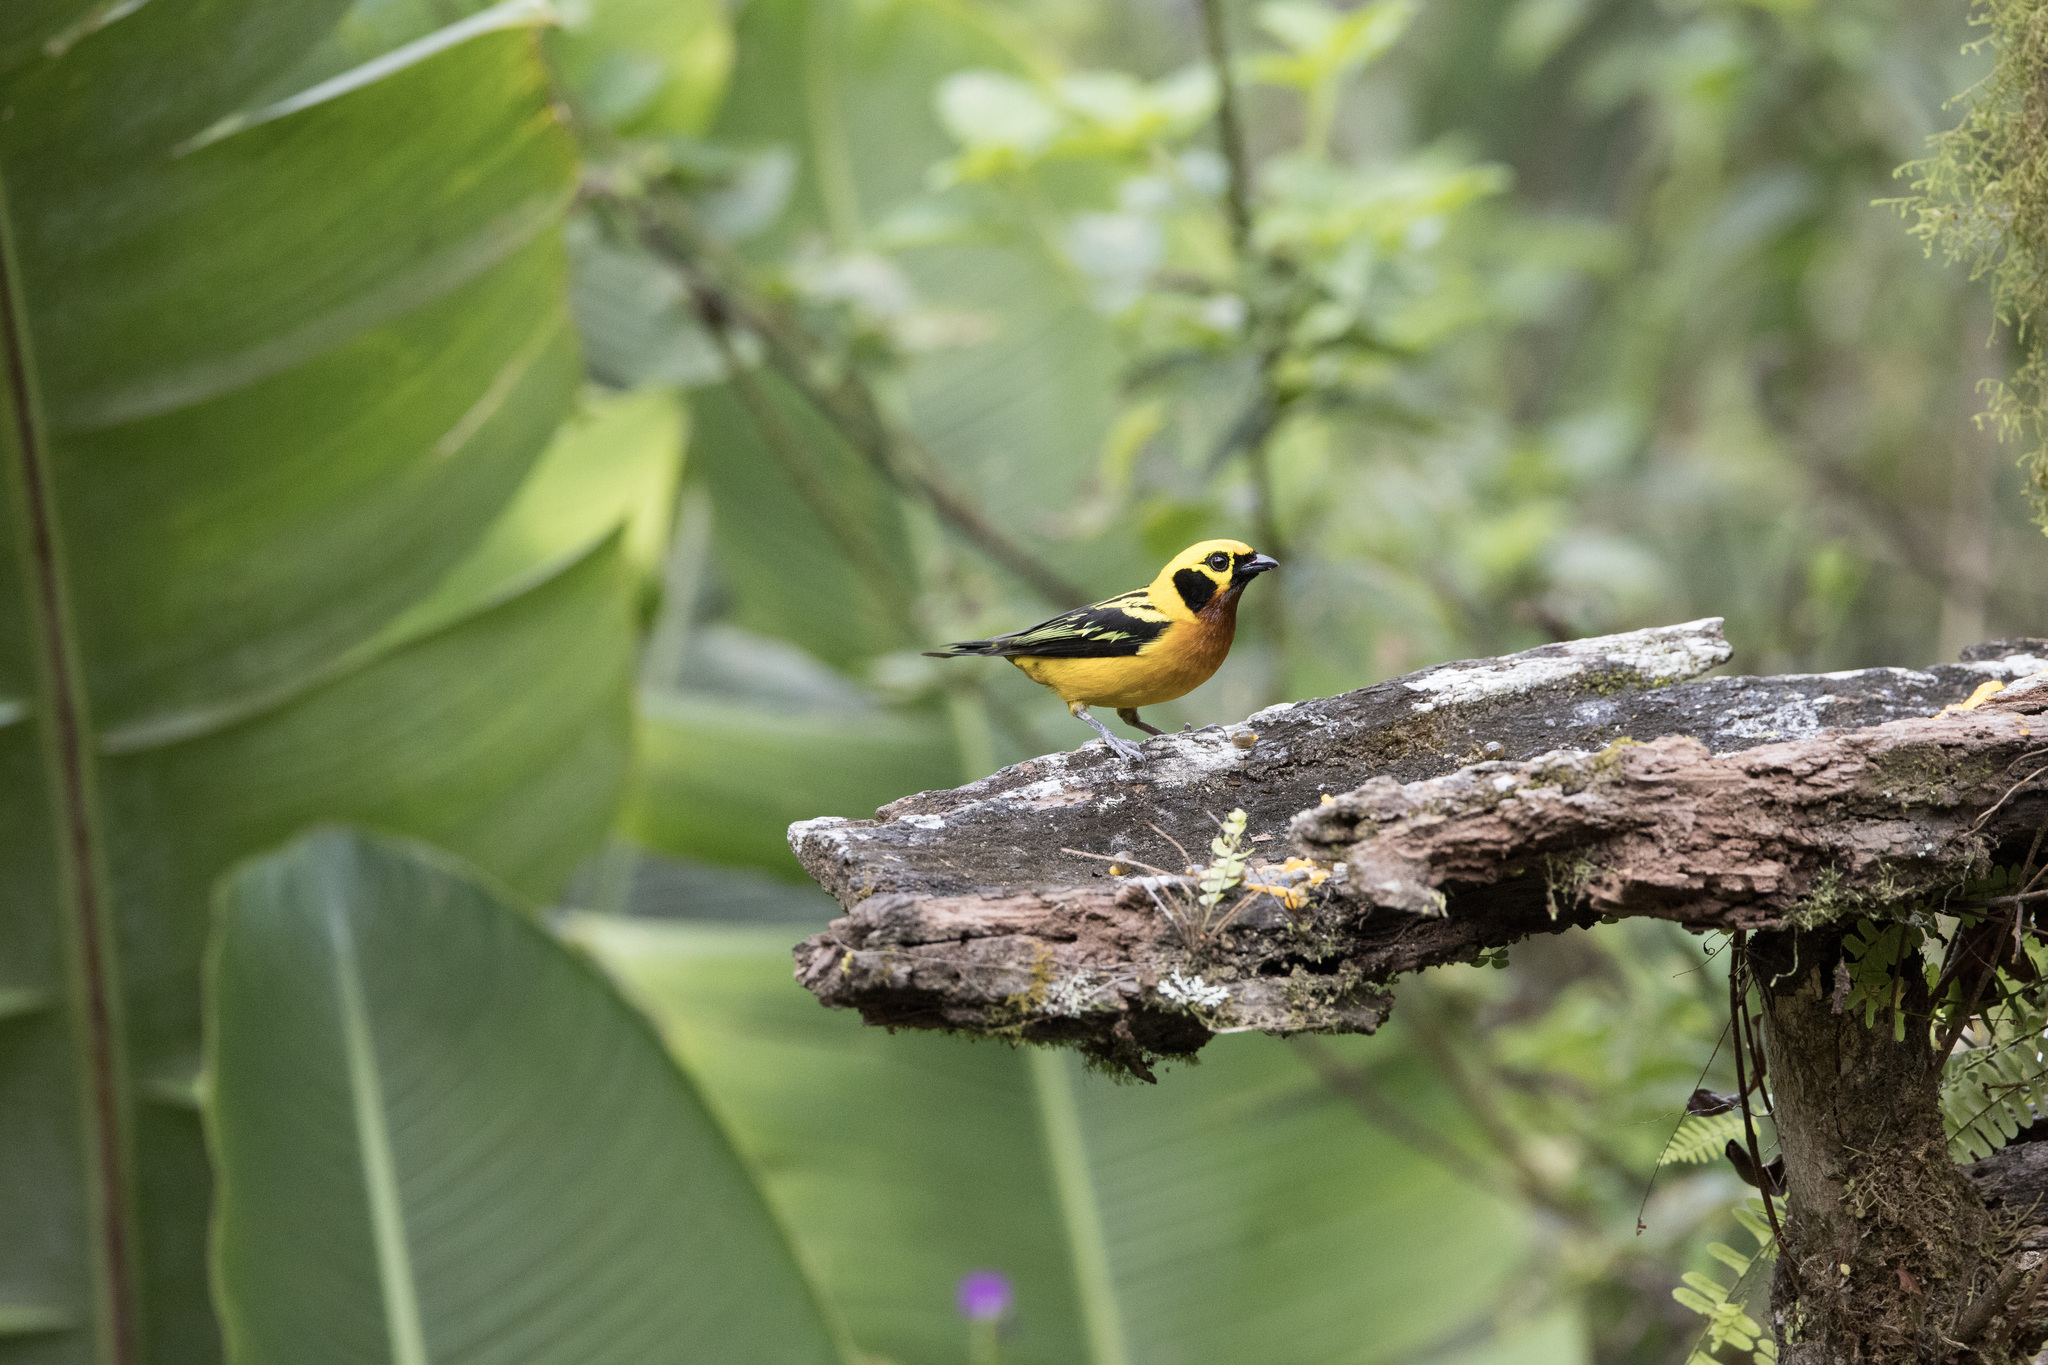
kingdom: Animalia
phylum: Chordata
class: Aves
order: Passeriformes
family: Thraupidae
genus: Tangara
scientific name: Tangara arthus
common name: Golden tanager
